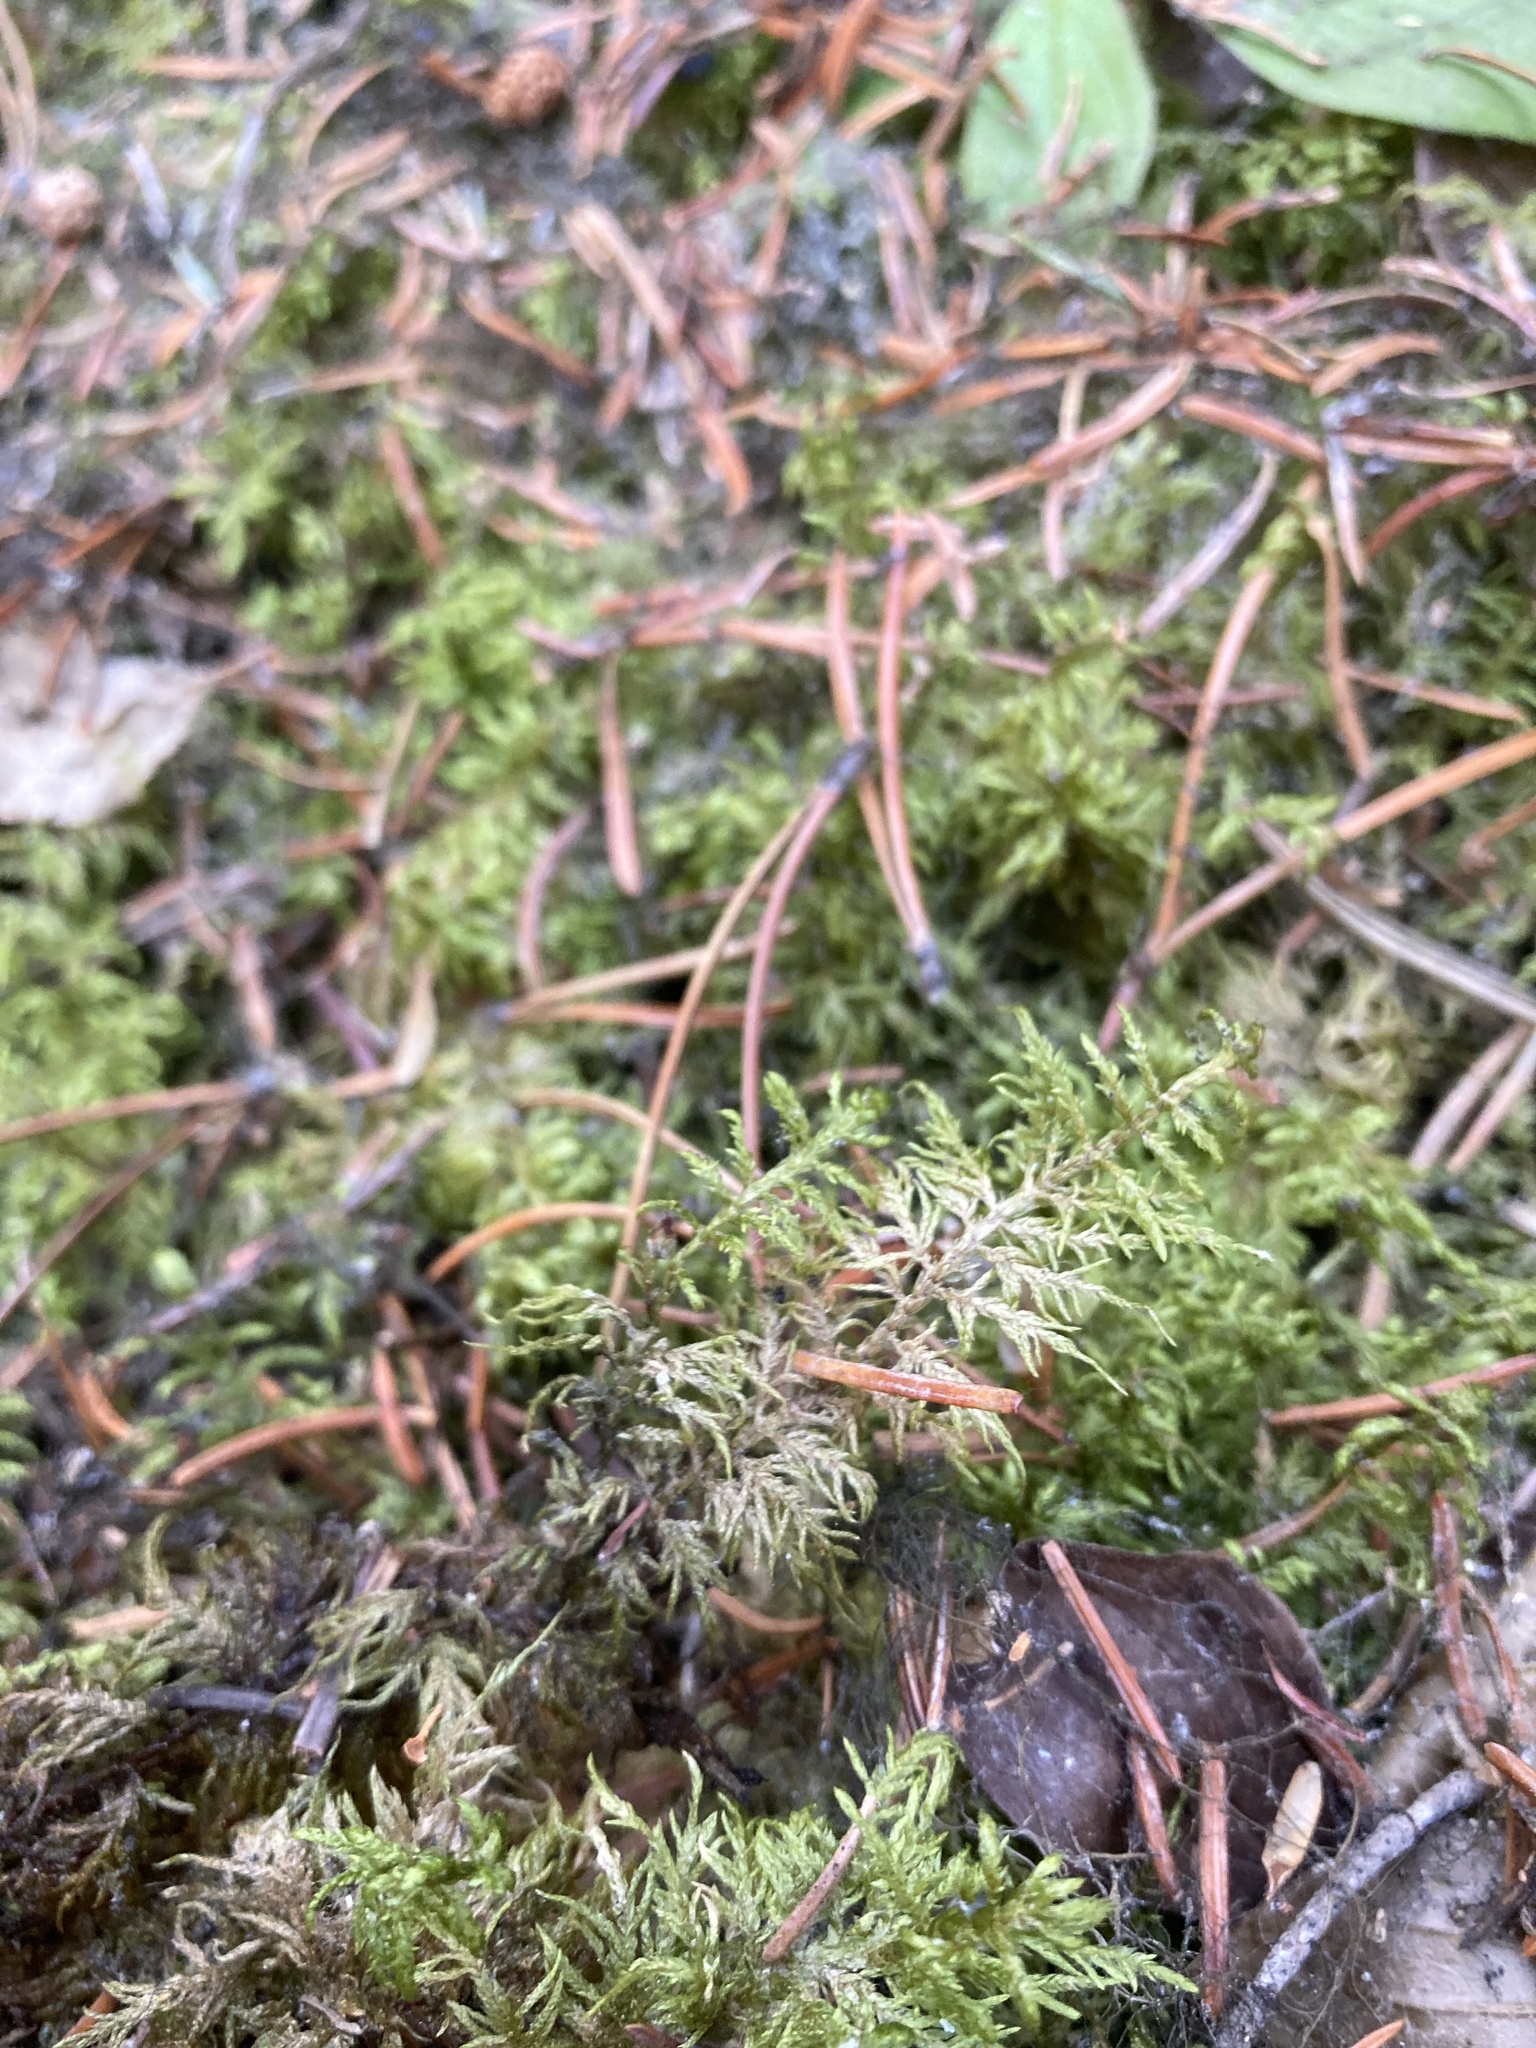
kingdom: Plantae
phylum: Bryophyta
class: Bryopsida
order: Hypnales
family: Hylocomiaceae
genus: Hylocomium
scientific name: Hylocomium splendens
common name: Stairstep moss
